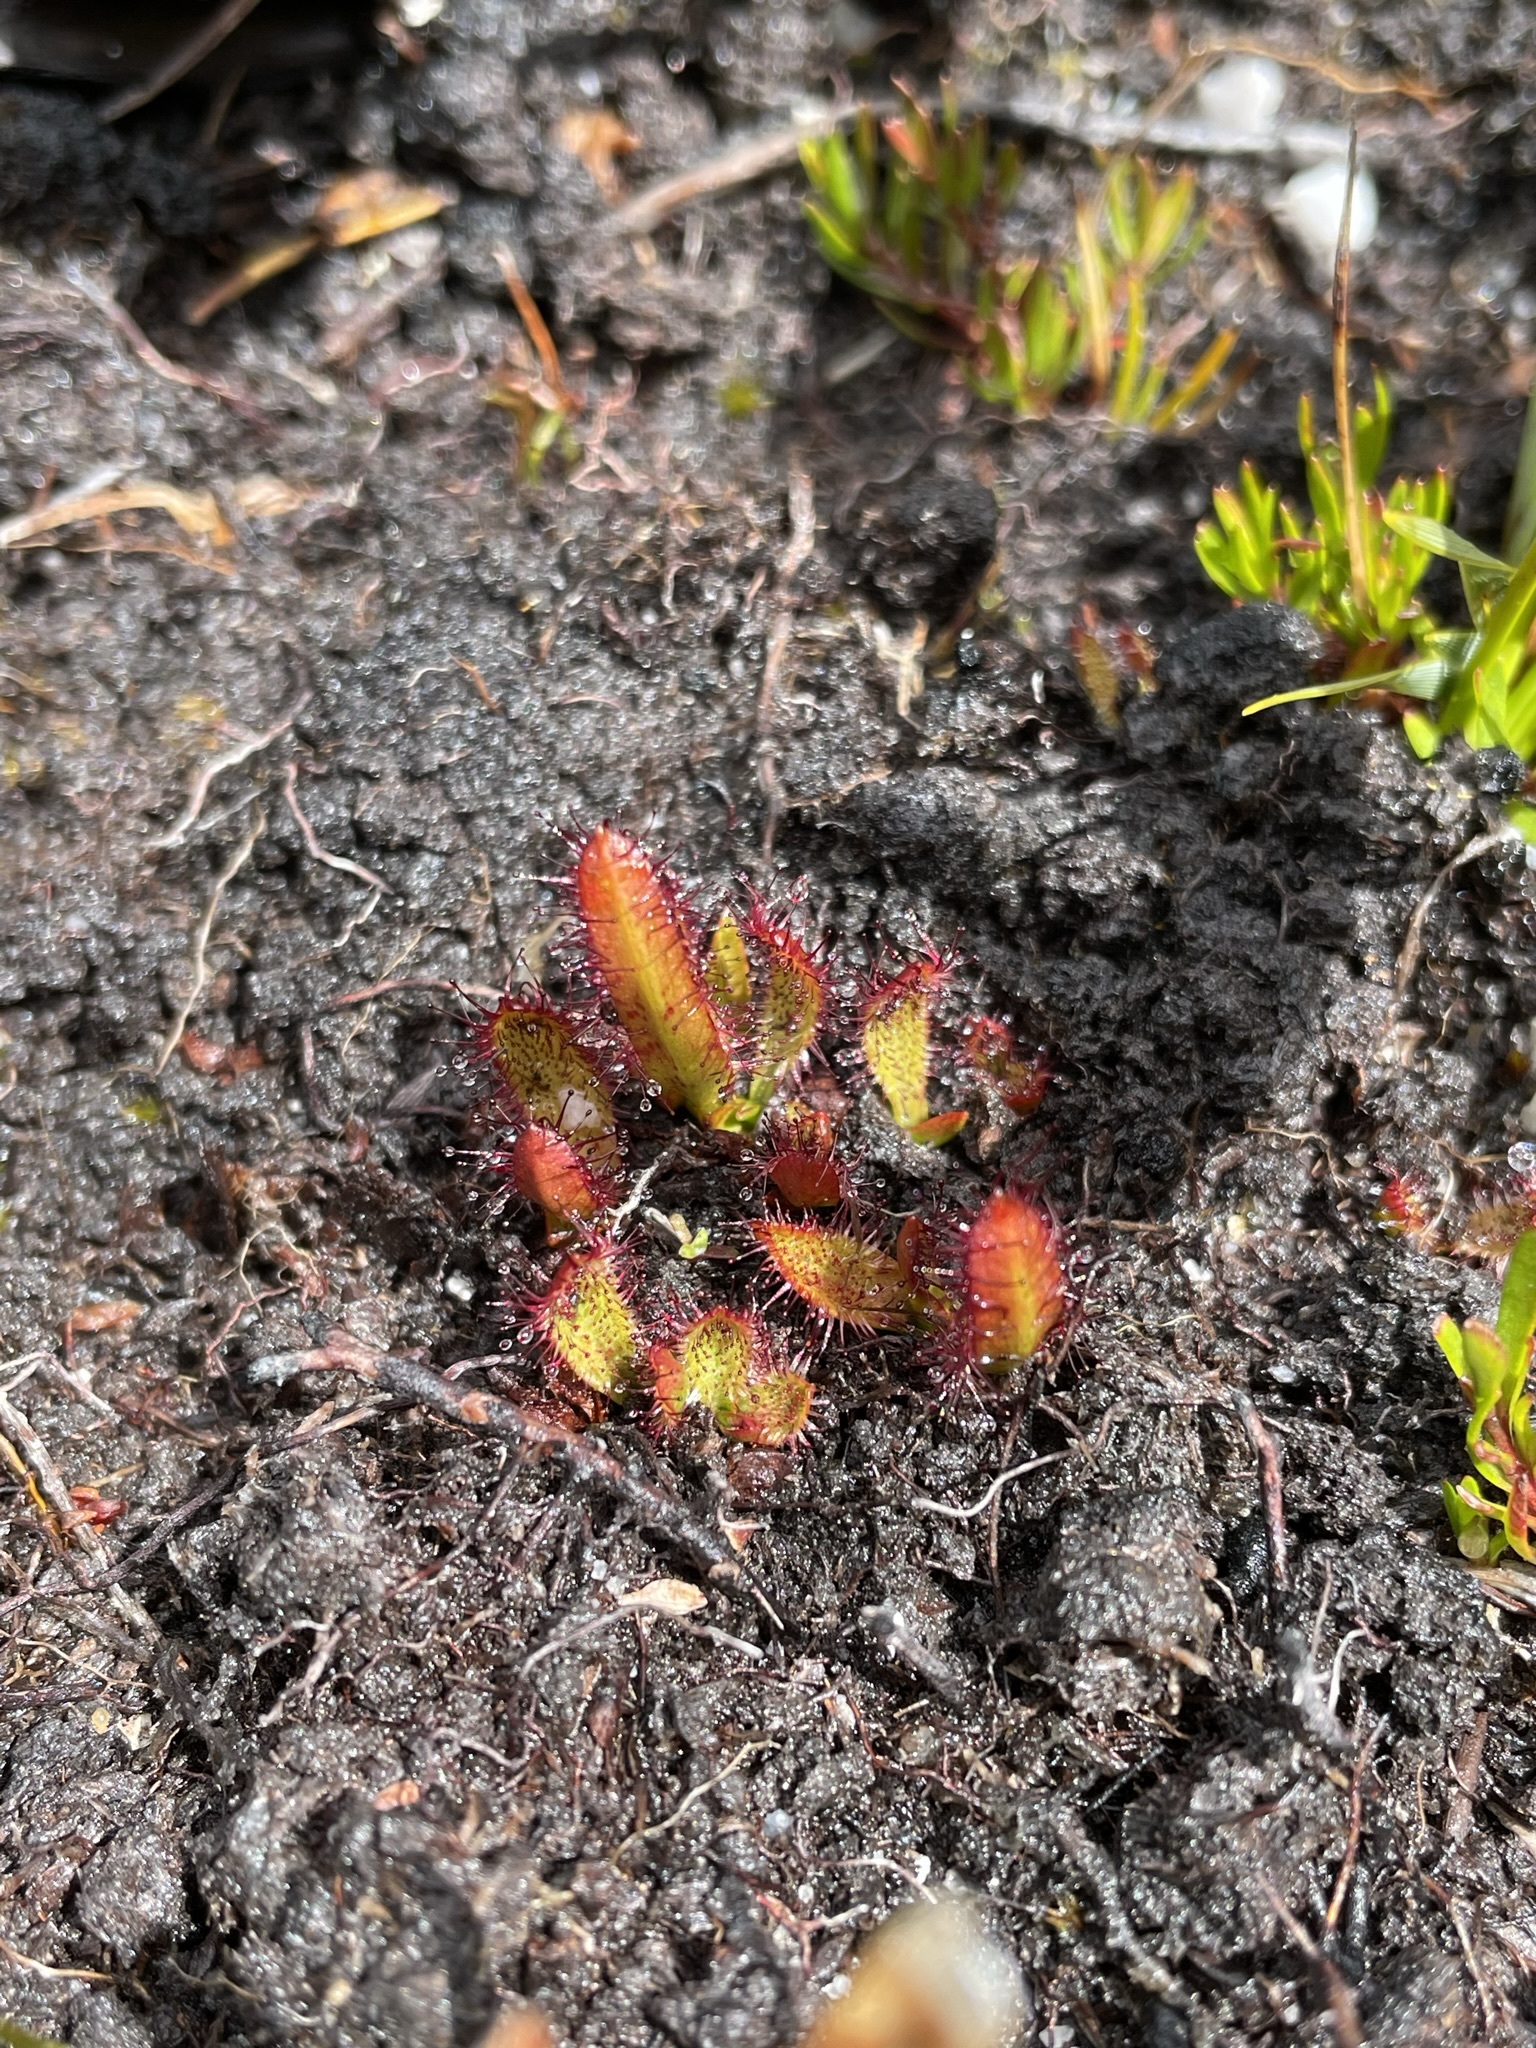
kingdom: Plantae
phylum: Tracheophyta
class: Magnoliopsida
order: Caryophyllales
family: Droseraceae
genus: Drosera
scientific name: Drosera murfetii
